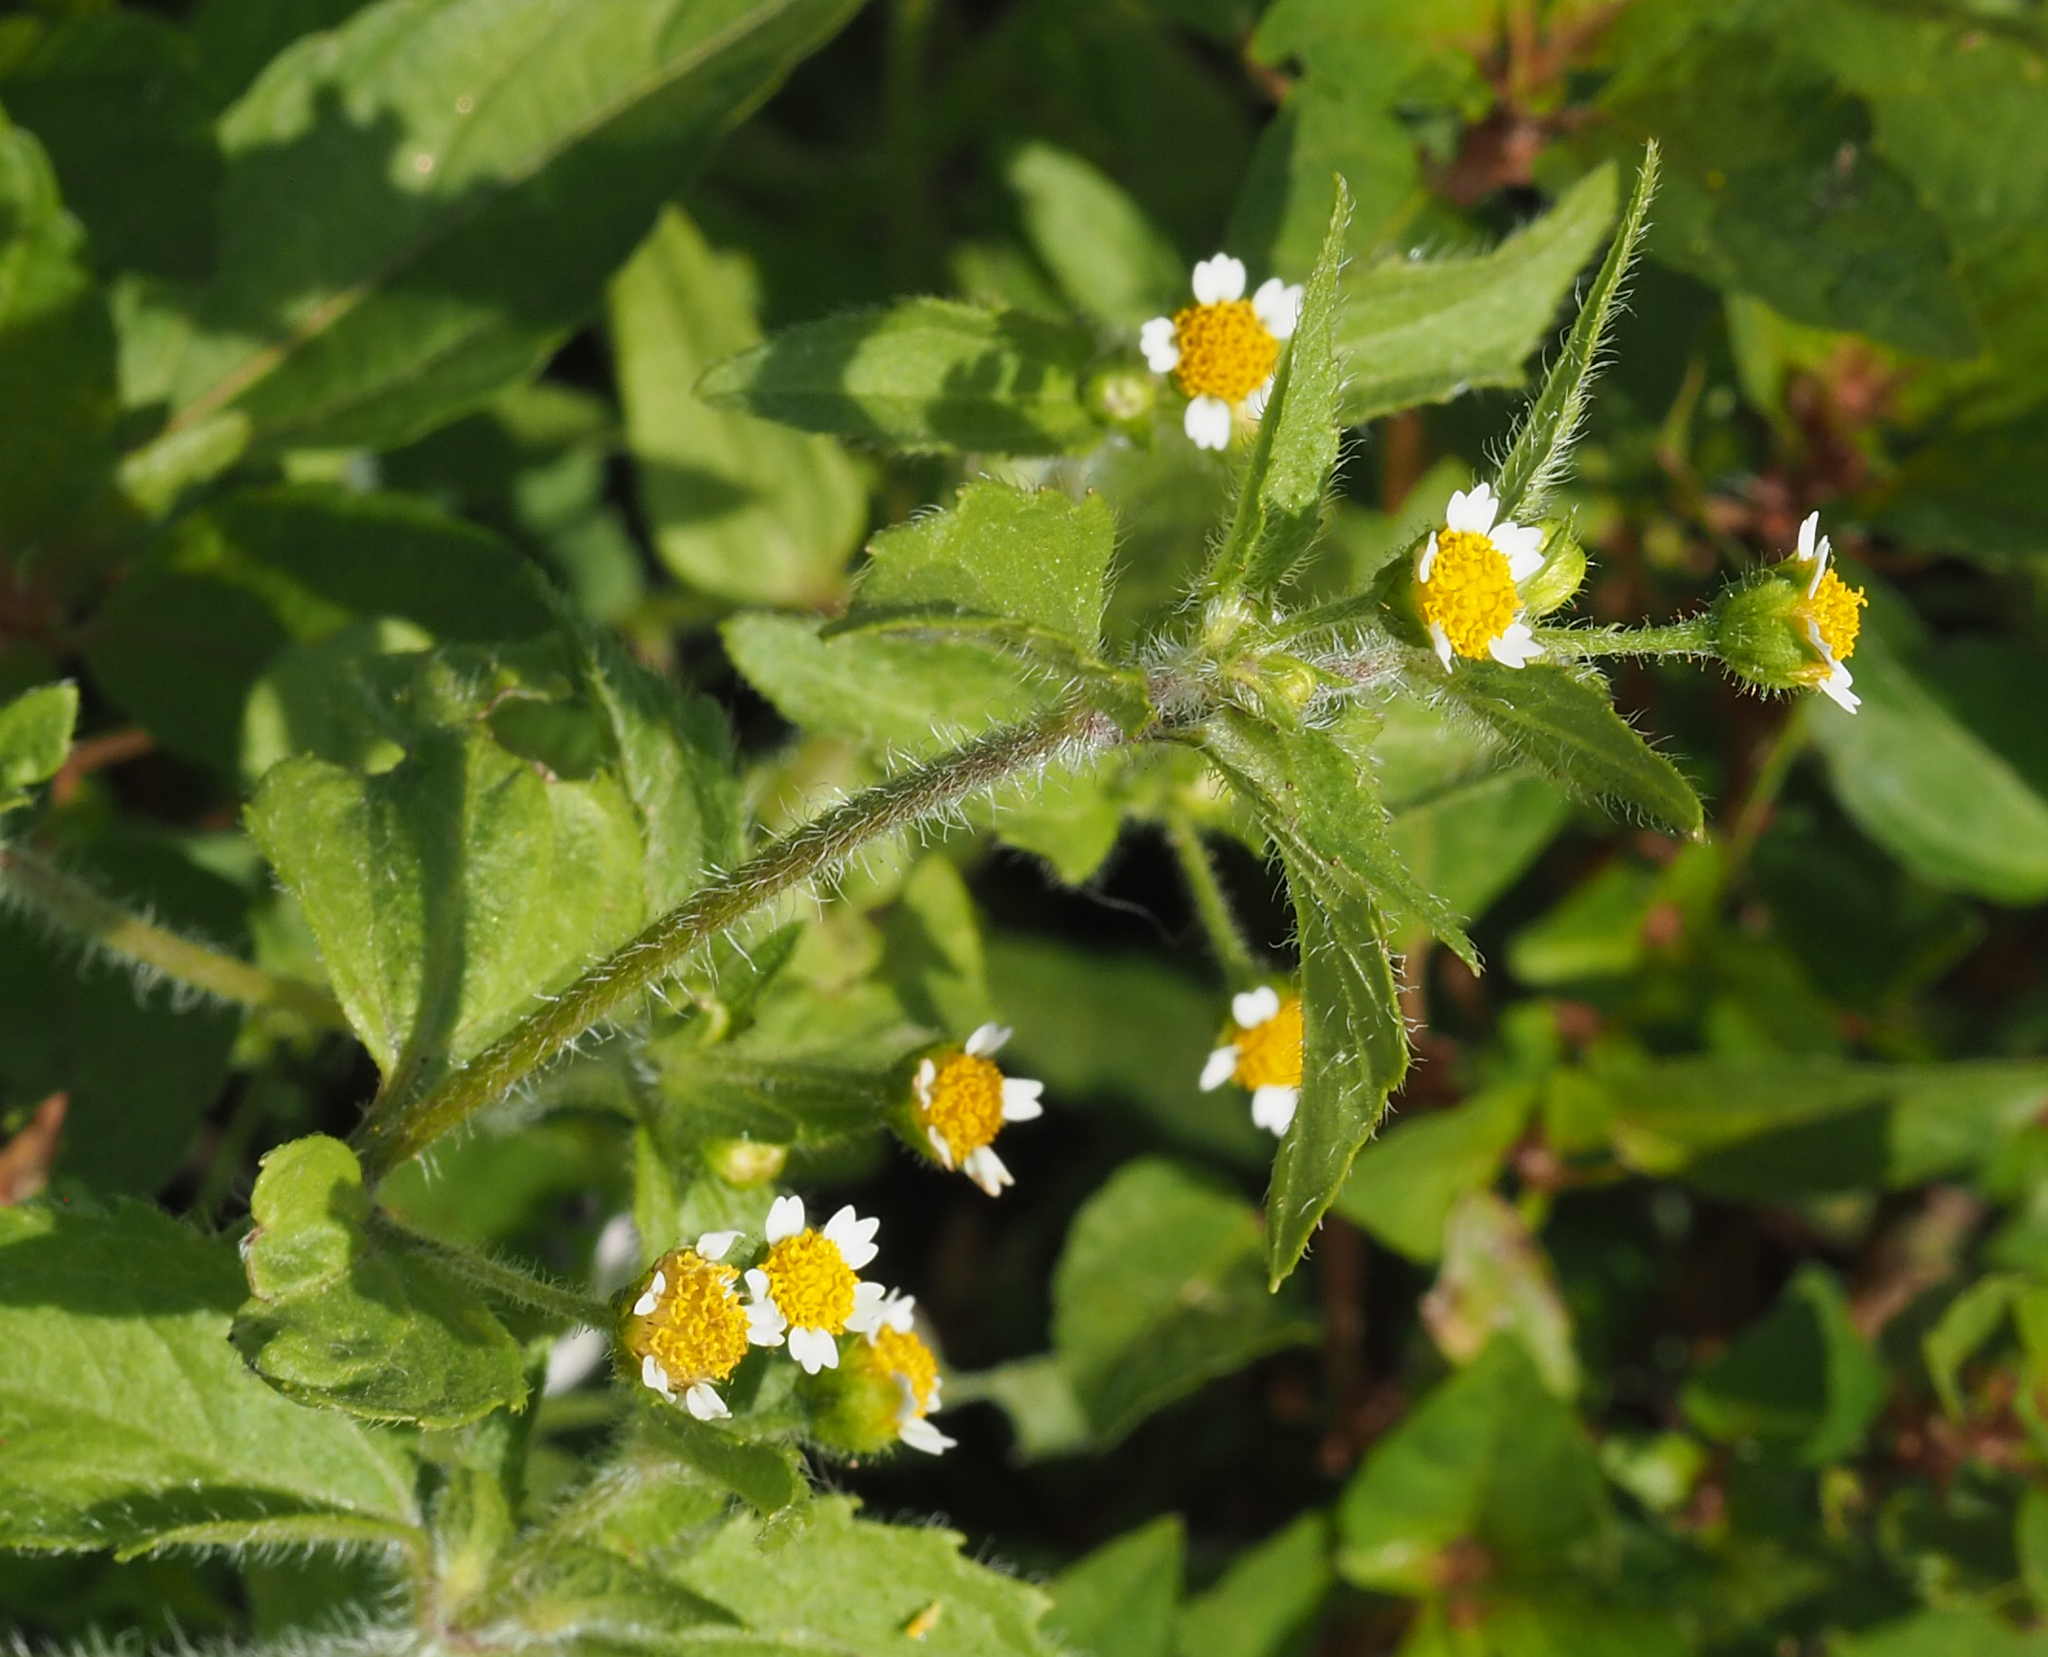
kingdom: Plantae
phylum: Tracheophyta
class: Magnoliopsida
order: Asterales
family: Asteraceae
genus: Galinsoga
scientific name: Galinsoga quadriradiata
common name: Shaggy soldier
